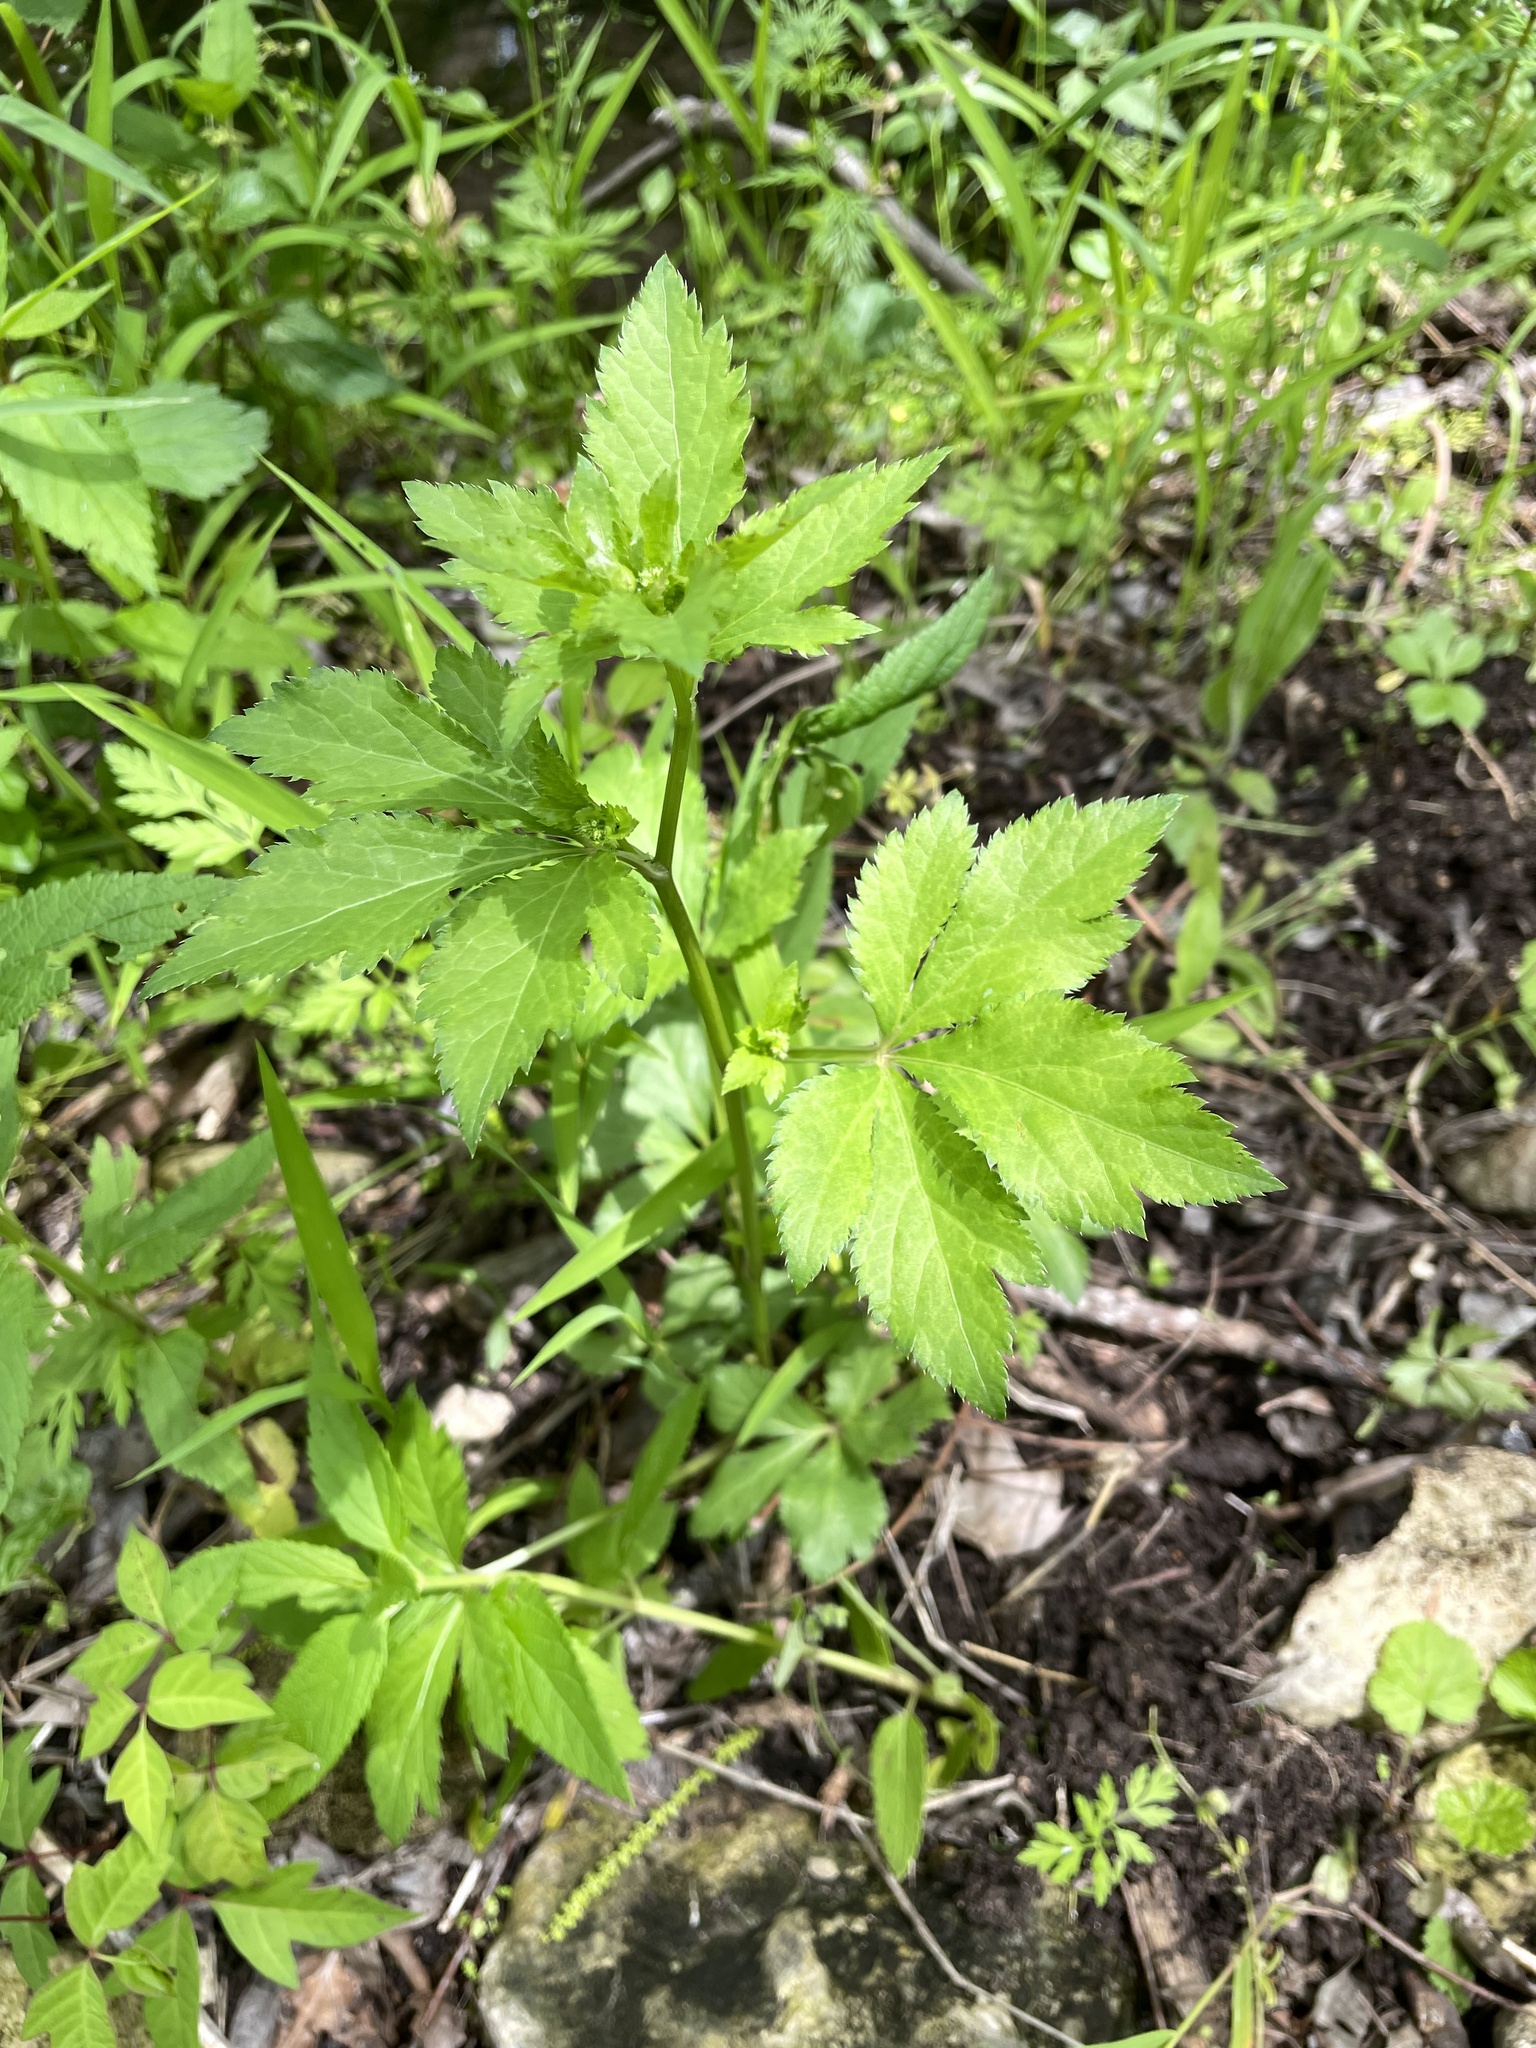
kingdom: Plantae
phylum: Tracheophyta
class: Magnoliopsida
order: Apiales
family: Apiaceae
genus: Sanicula
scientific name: Sanicula canadensis
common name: Canada sanicle
